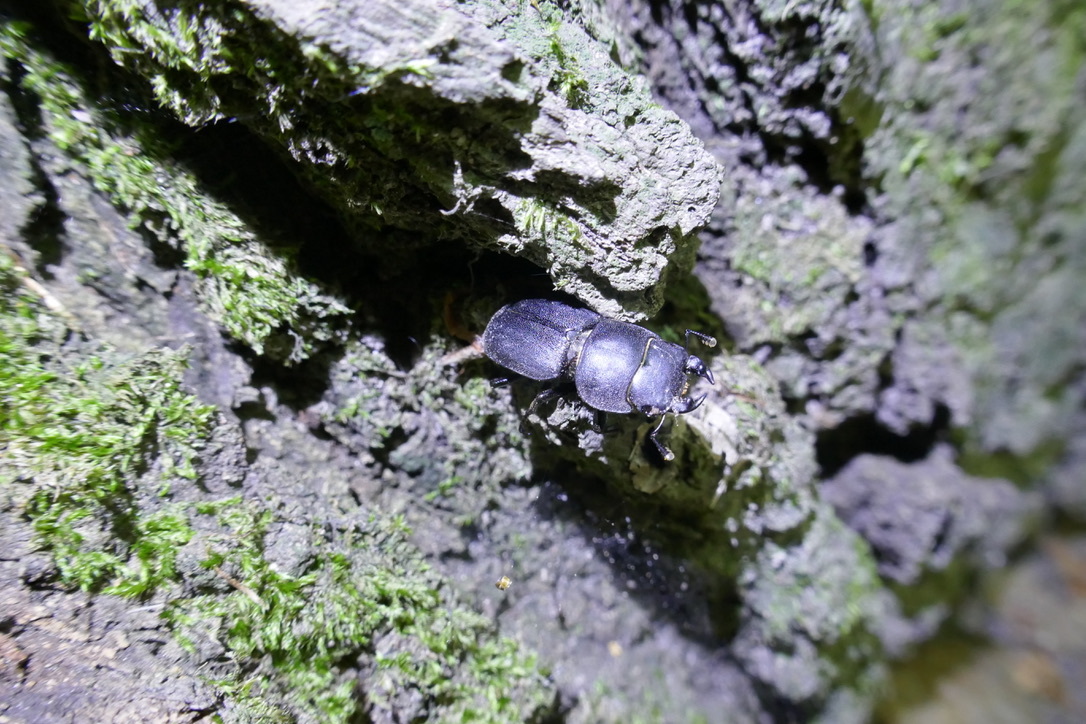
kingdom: Animalia
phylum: Arthropoda
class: Insecta
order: Coleoptera
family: Lucanidae
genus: Dorcus
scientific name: Dorcus parallelipipedus
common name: Lesser stag beetle
